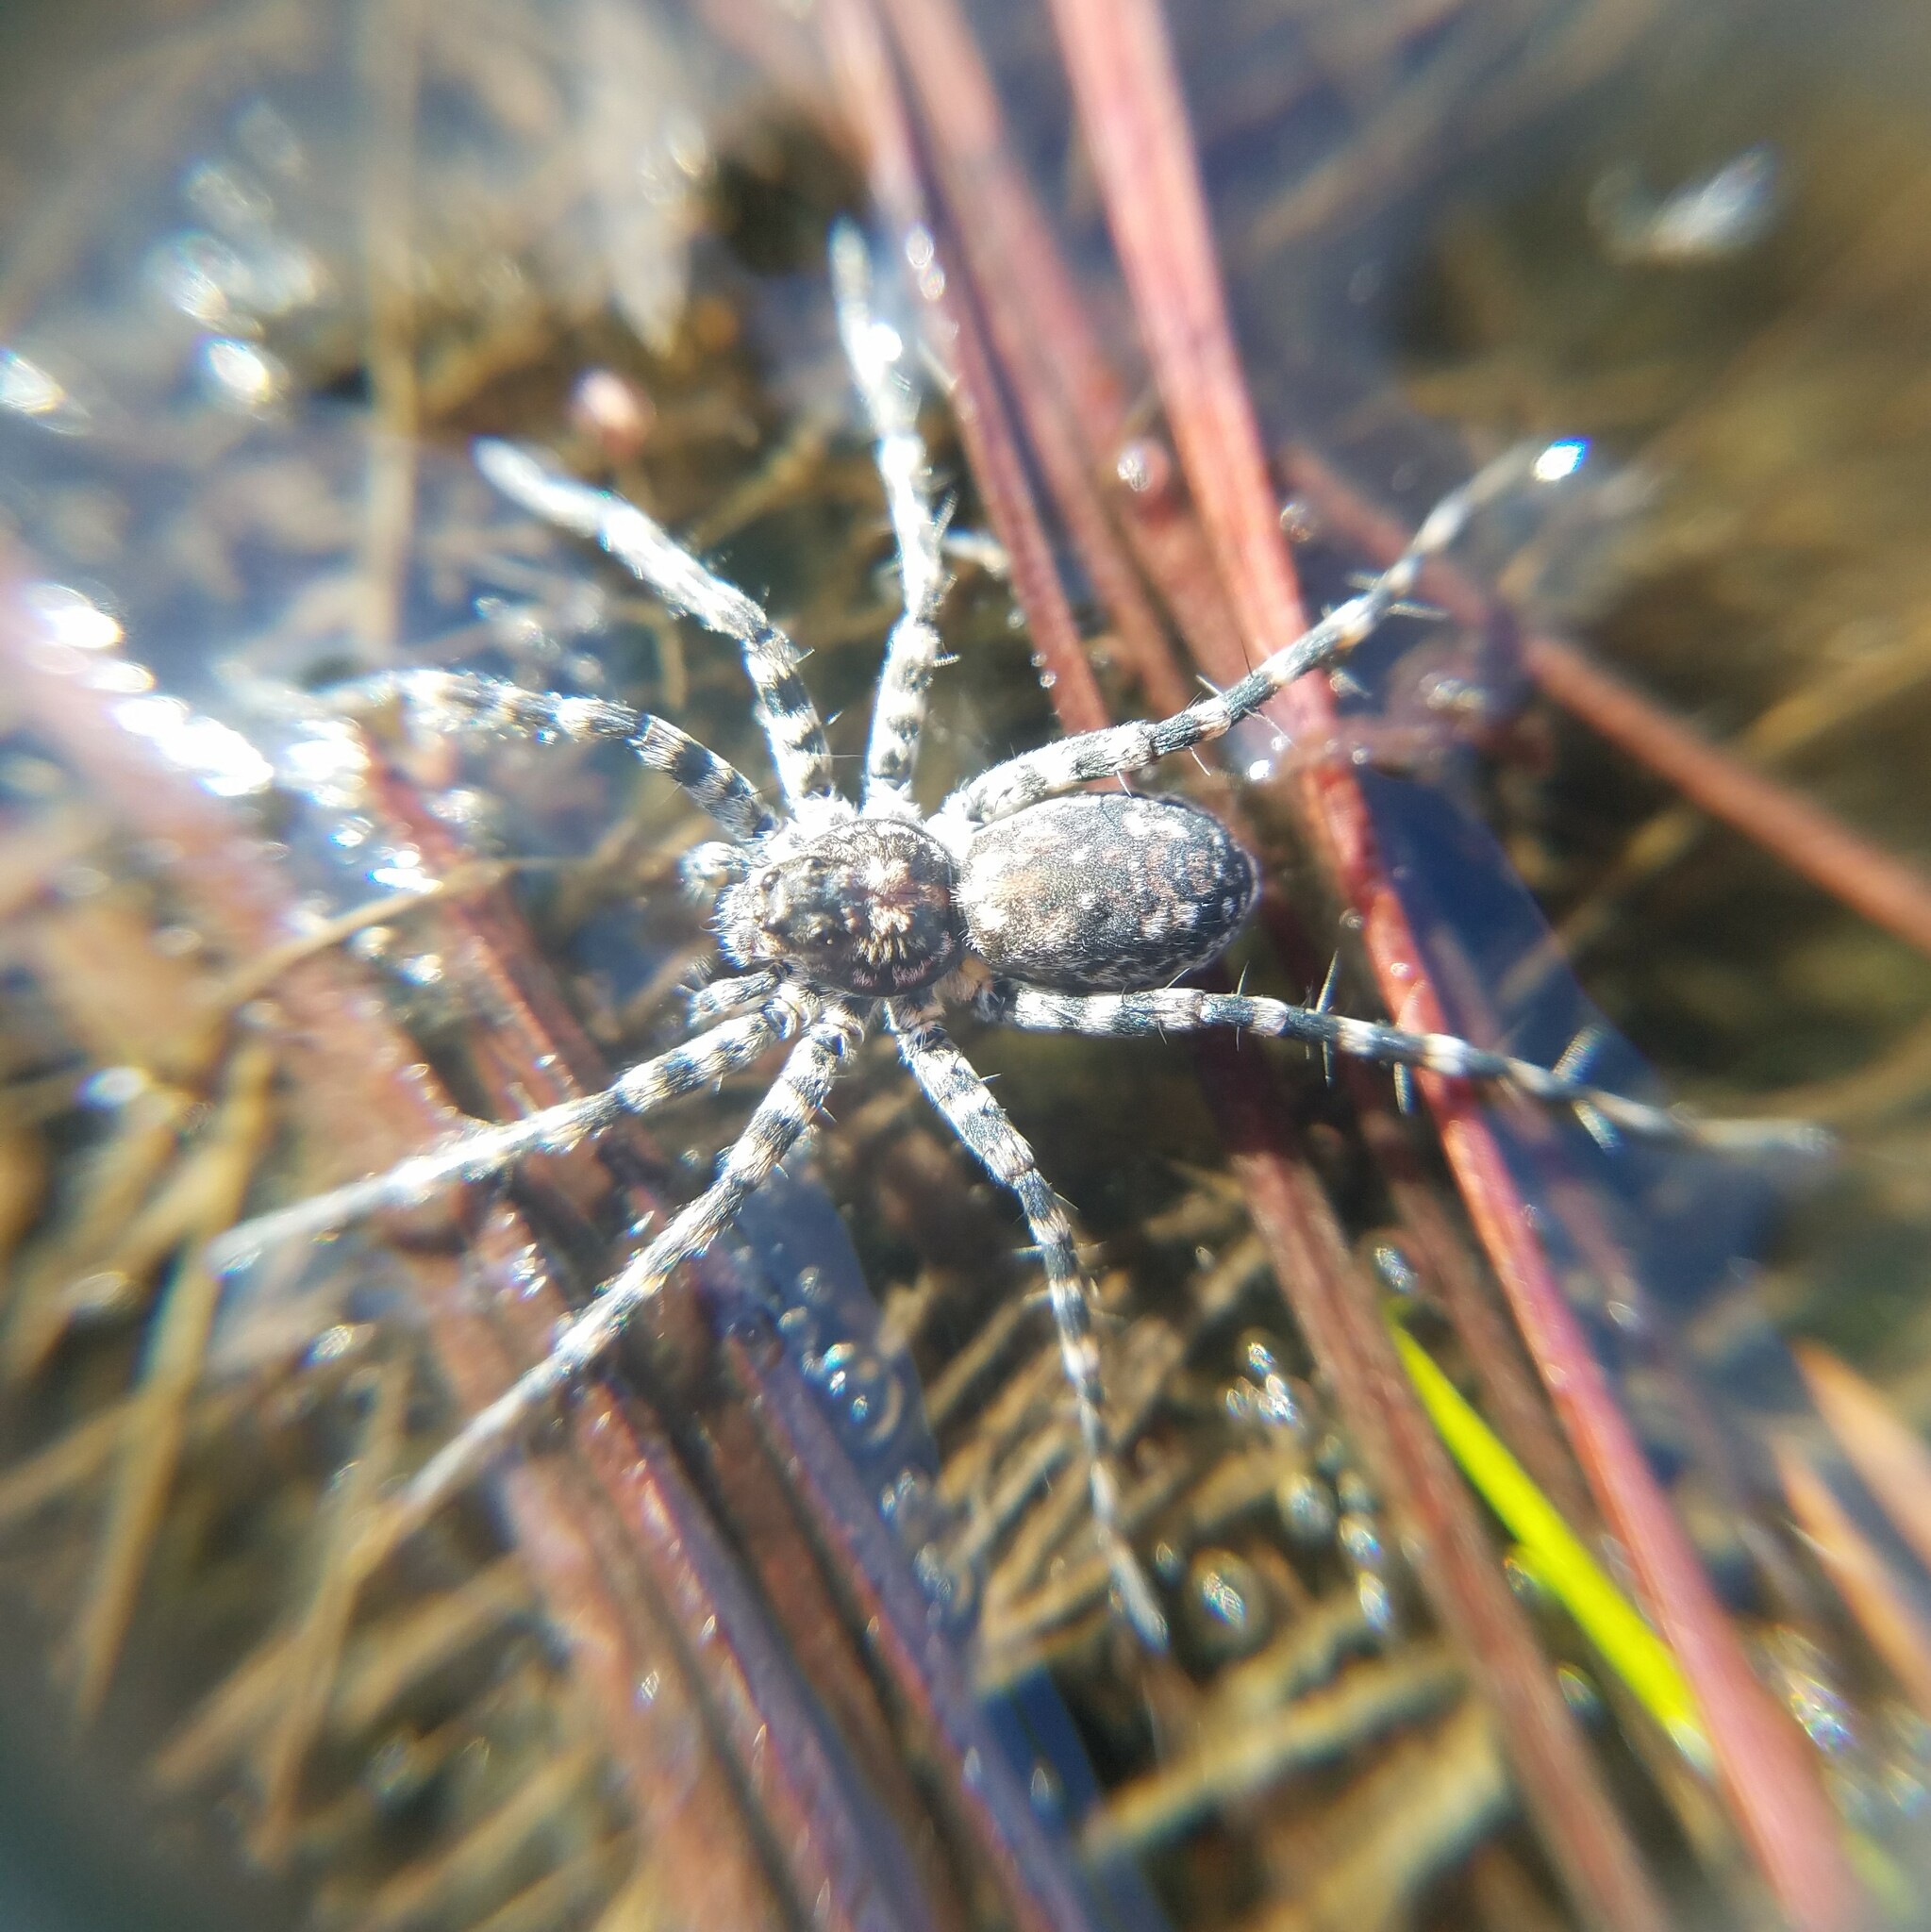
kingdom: Animalia
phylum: Arthropoda
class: Arachnida
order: Araneae
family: Lycosidae
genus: Pardosa
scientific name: Pardosa lapidicina
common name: Stone spider
